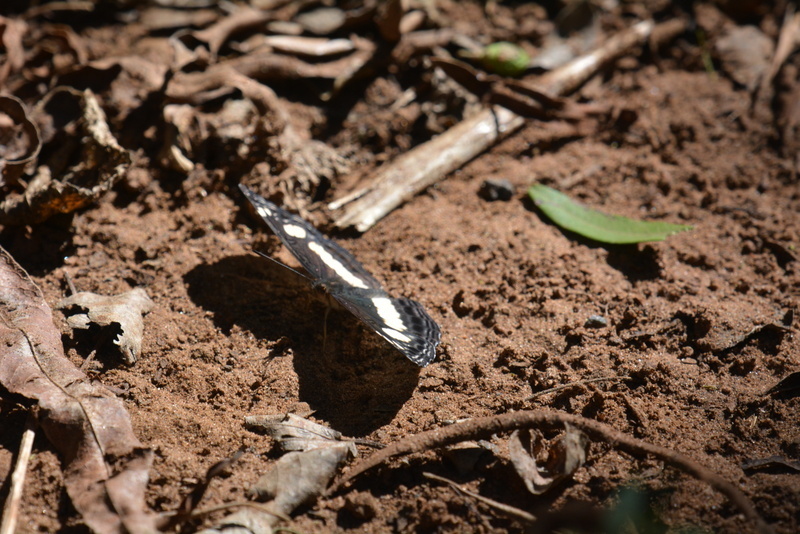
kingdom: Animalia
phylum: Arthropoda
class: Insecta
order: Lepidoptera
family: Nymphalidae
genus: Neptis
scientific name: Neptis saclava
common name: Small spotted sailor
